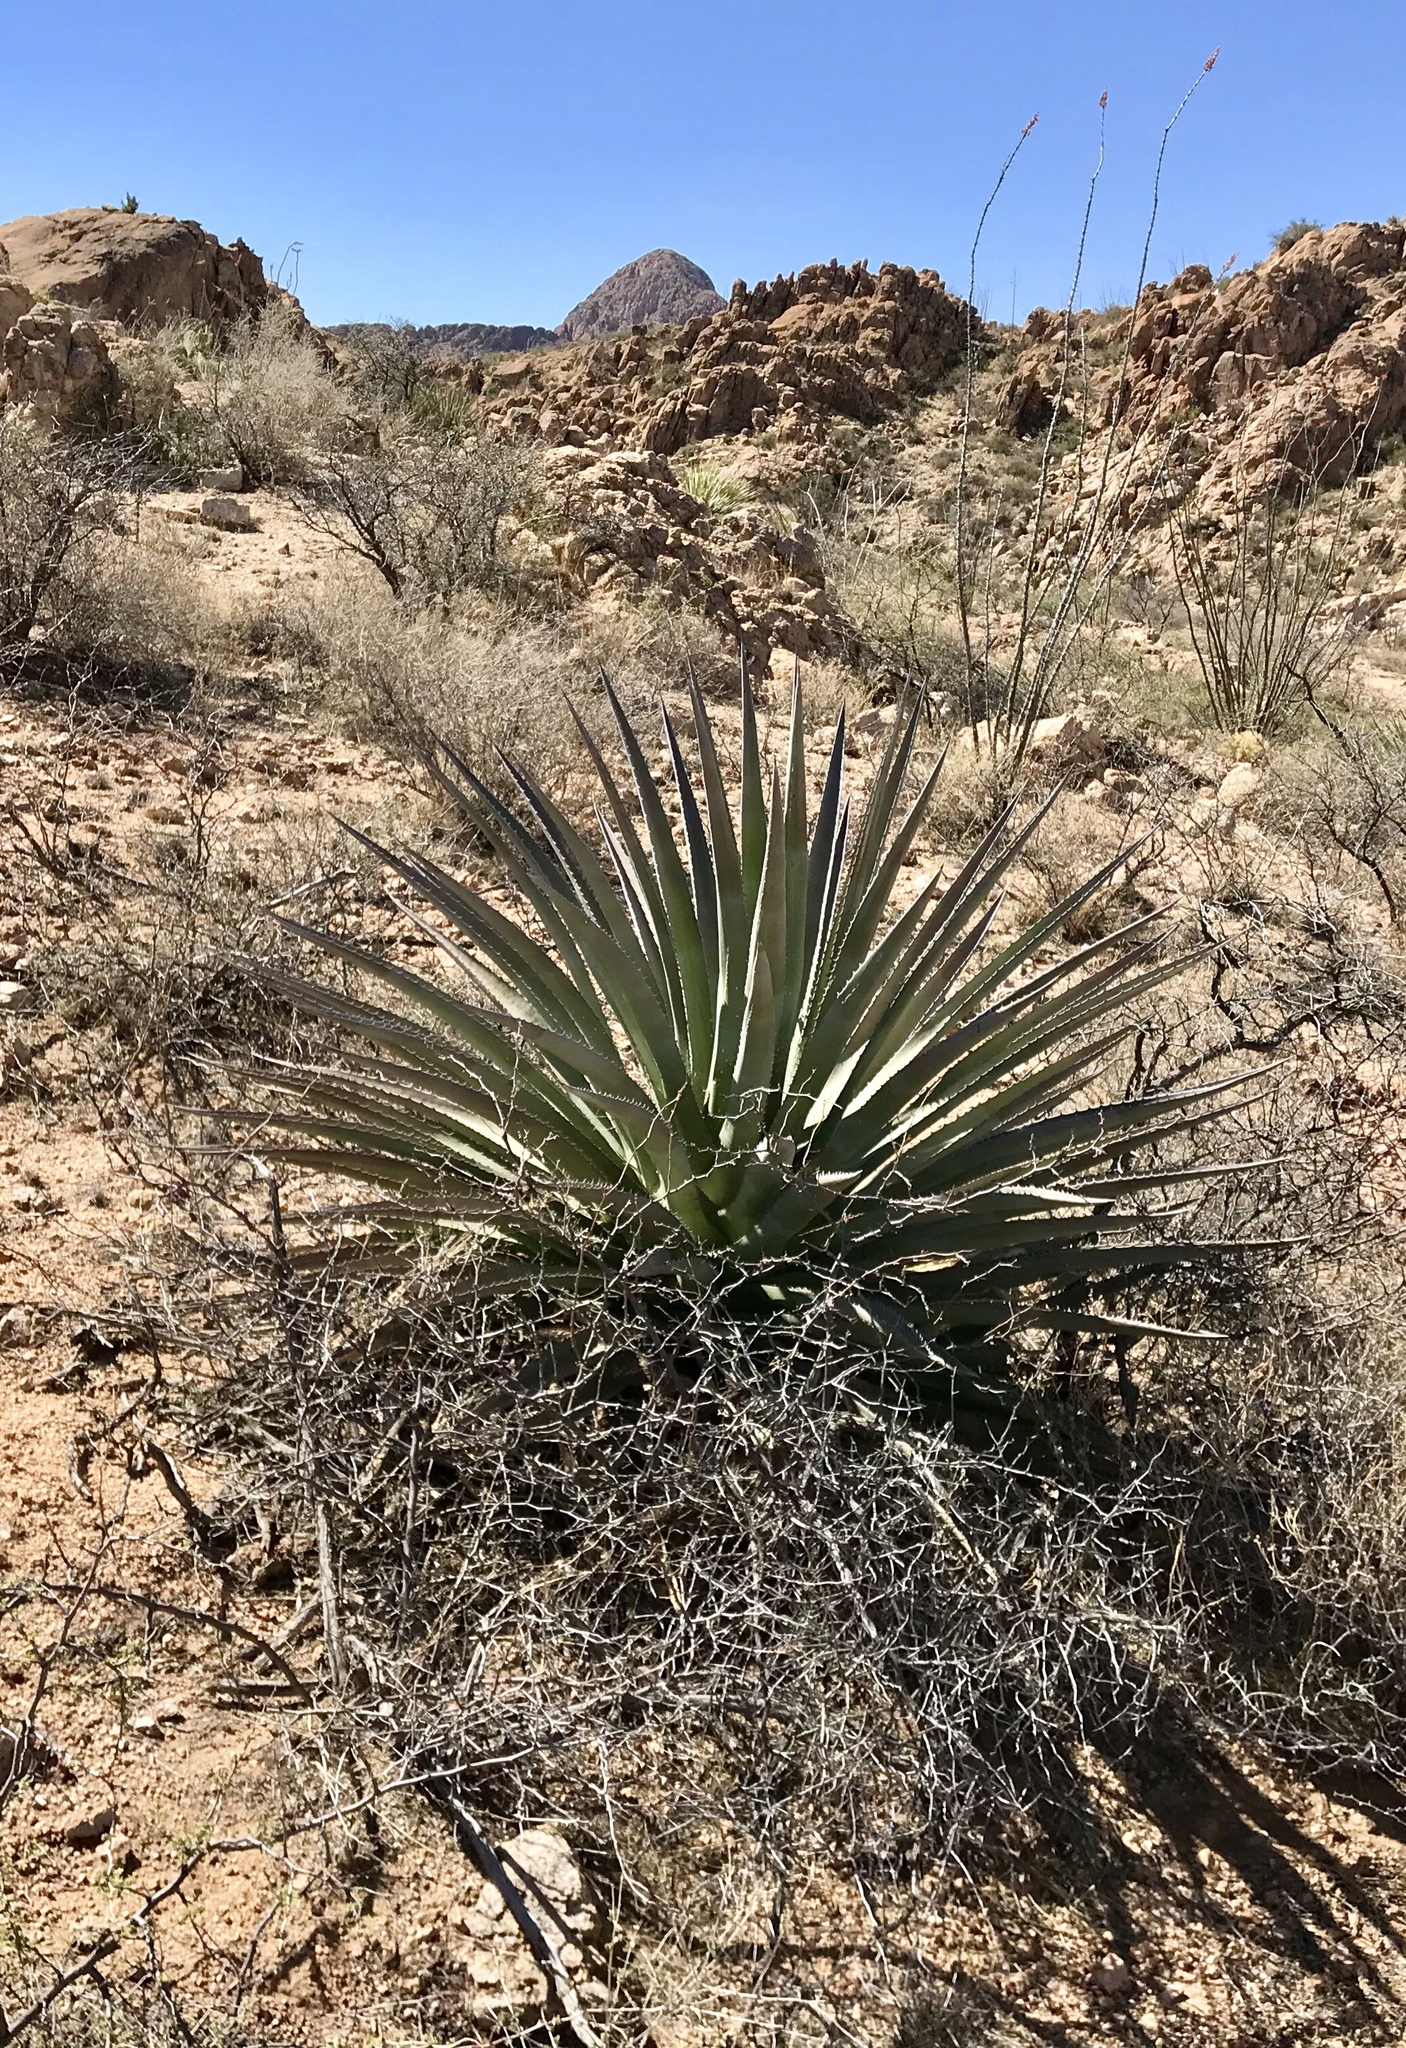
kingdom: Plantae
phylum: Tracheophyta
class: Liliopsida
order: Asparagales
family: Asparagaceae
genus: Agave
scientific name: Agave palmeri
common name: Palmer agave
